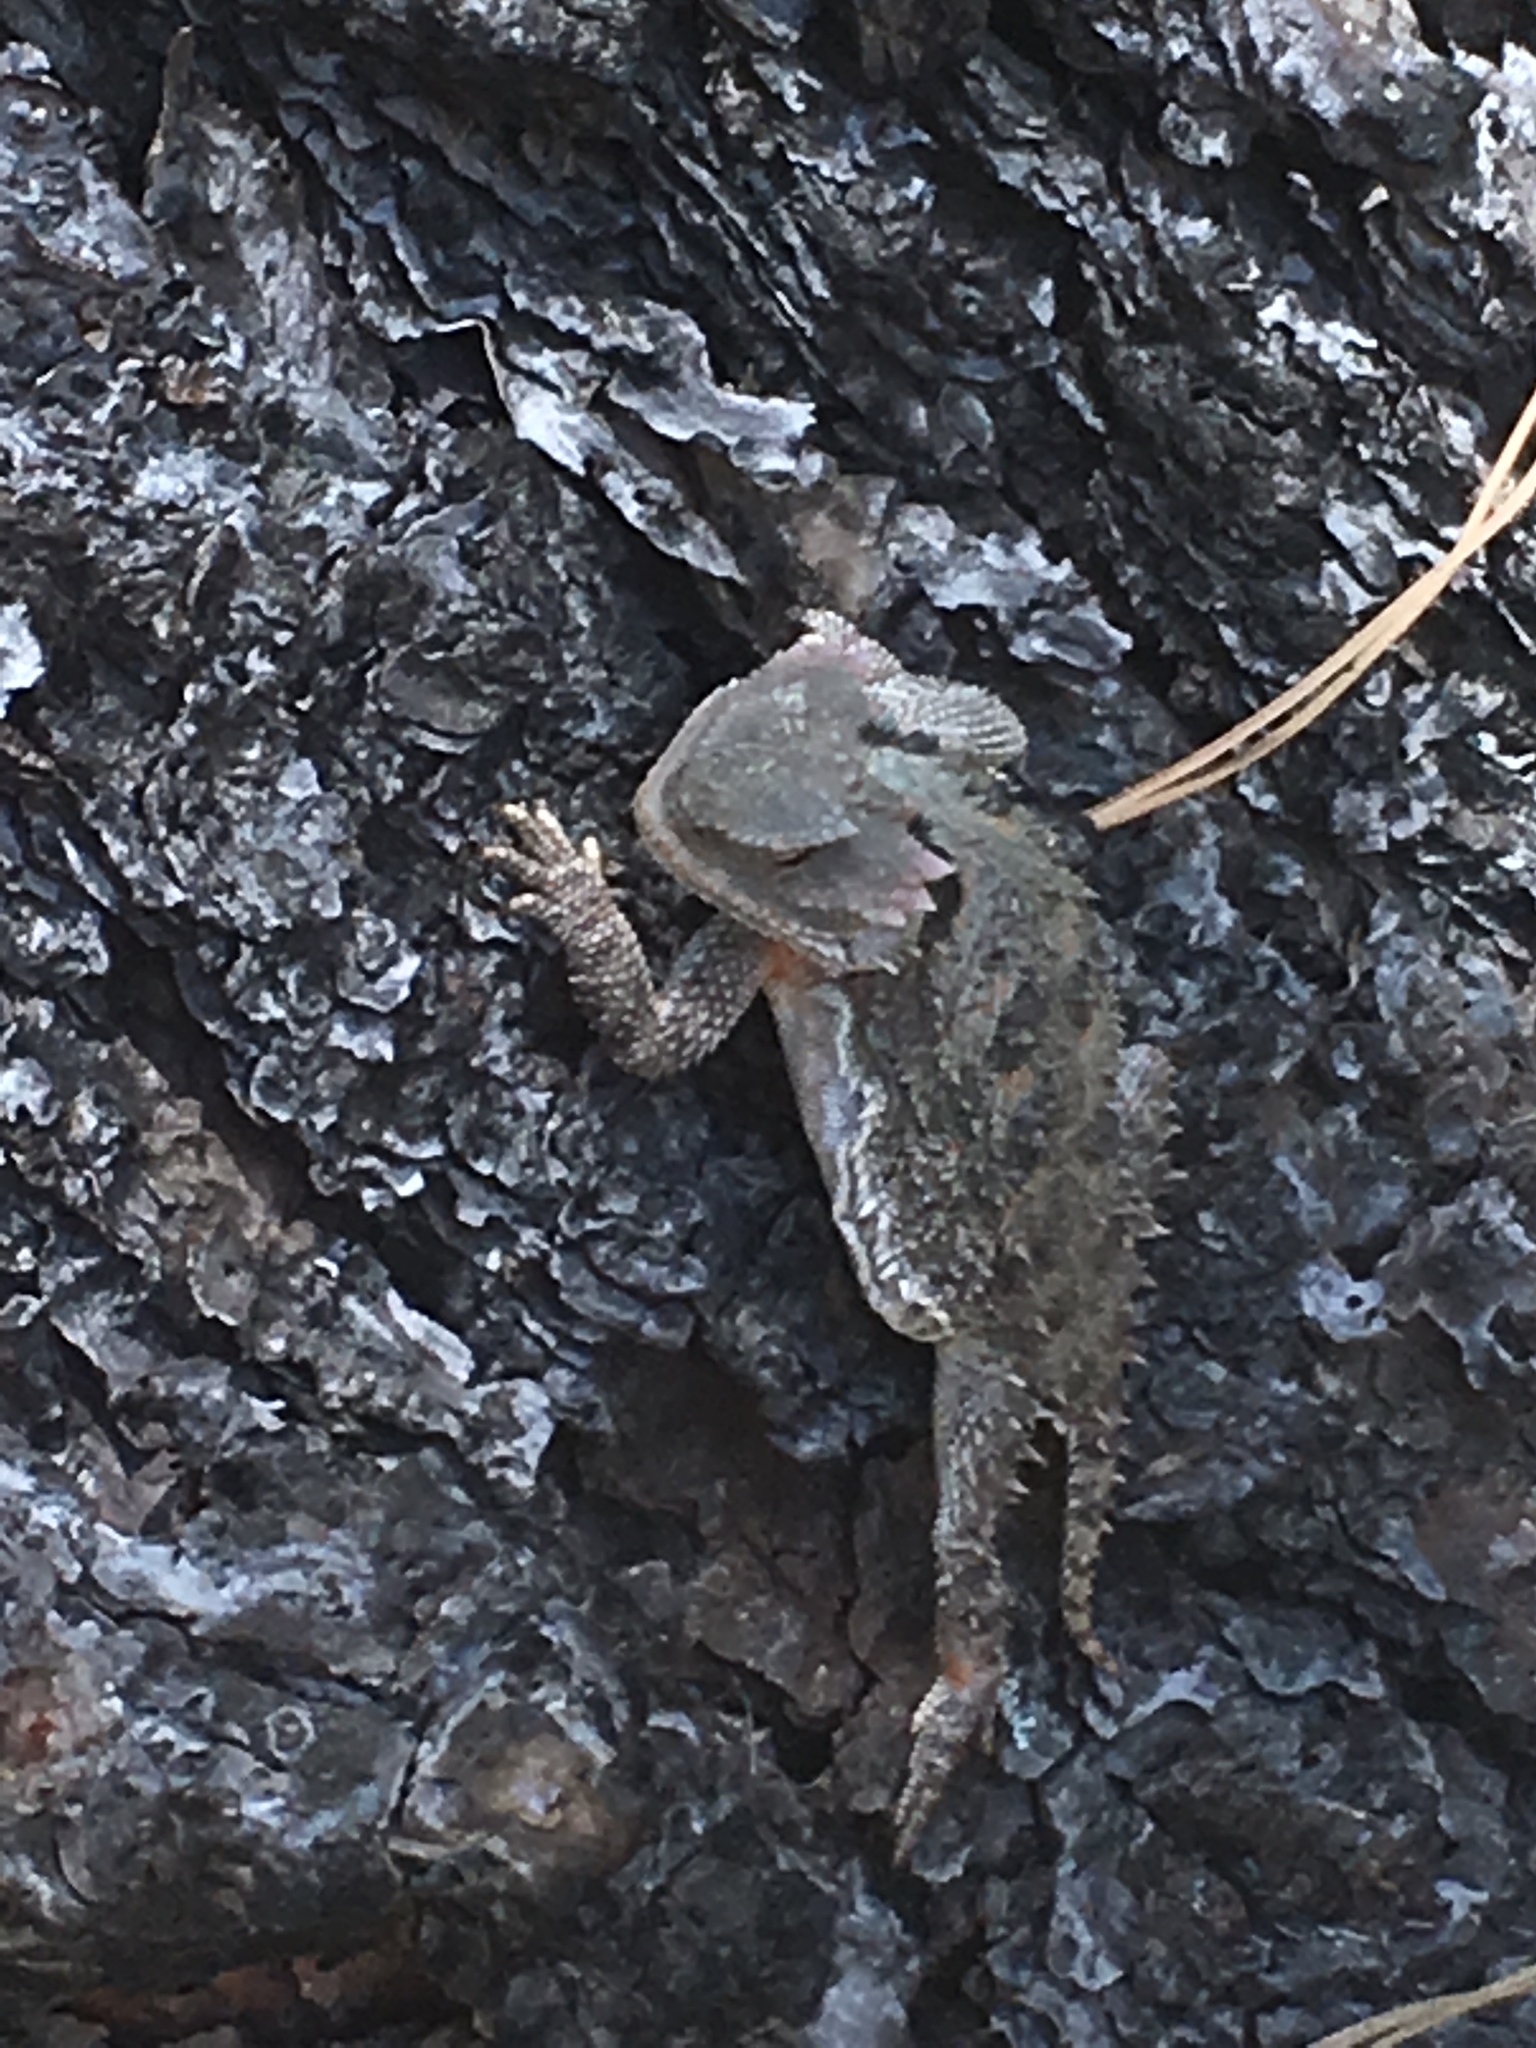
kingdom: Animalia
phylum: Chordata
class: Squamata
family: Phrynosomatidae
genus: Phrynosoma
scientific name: Phrynosoma hernandesi
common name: Greater short-horned lizard
